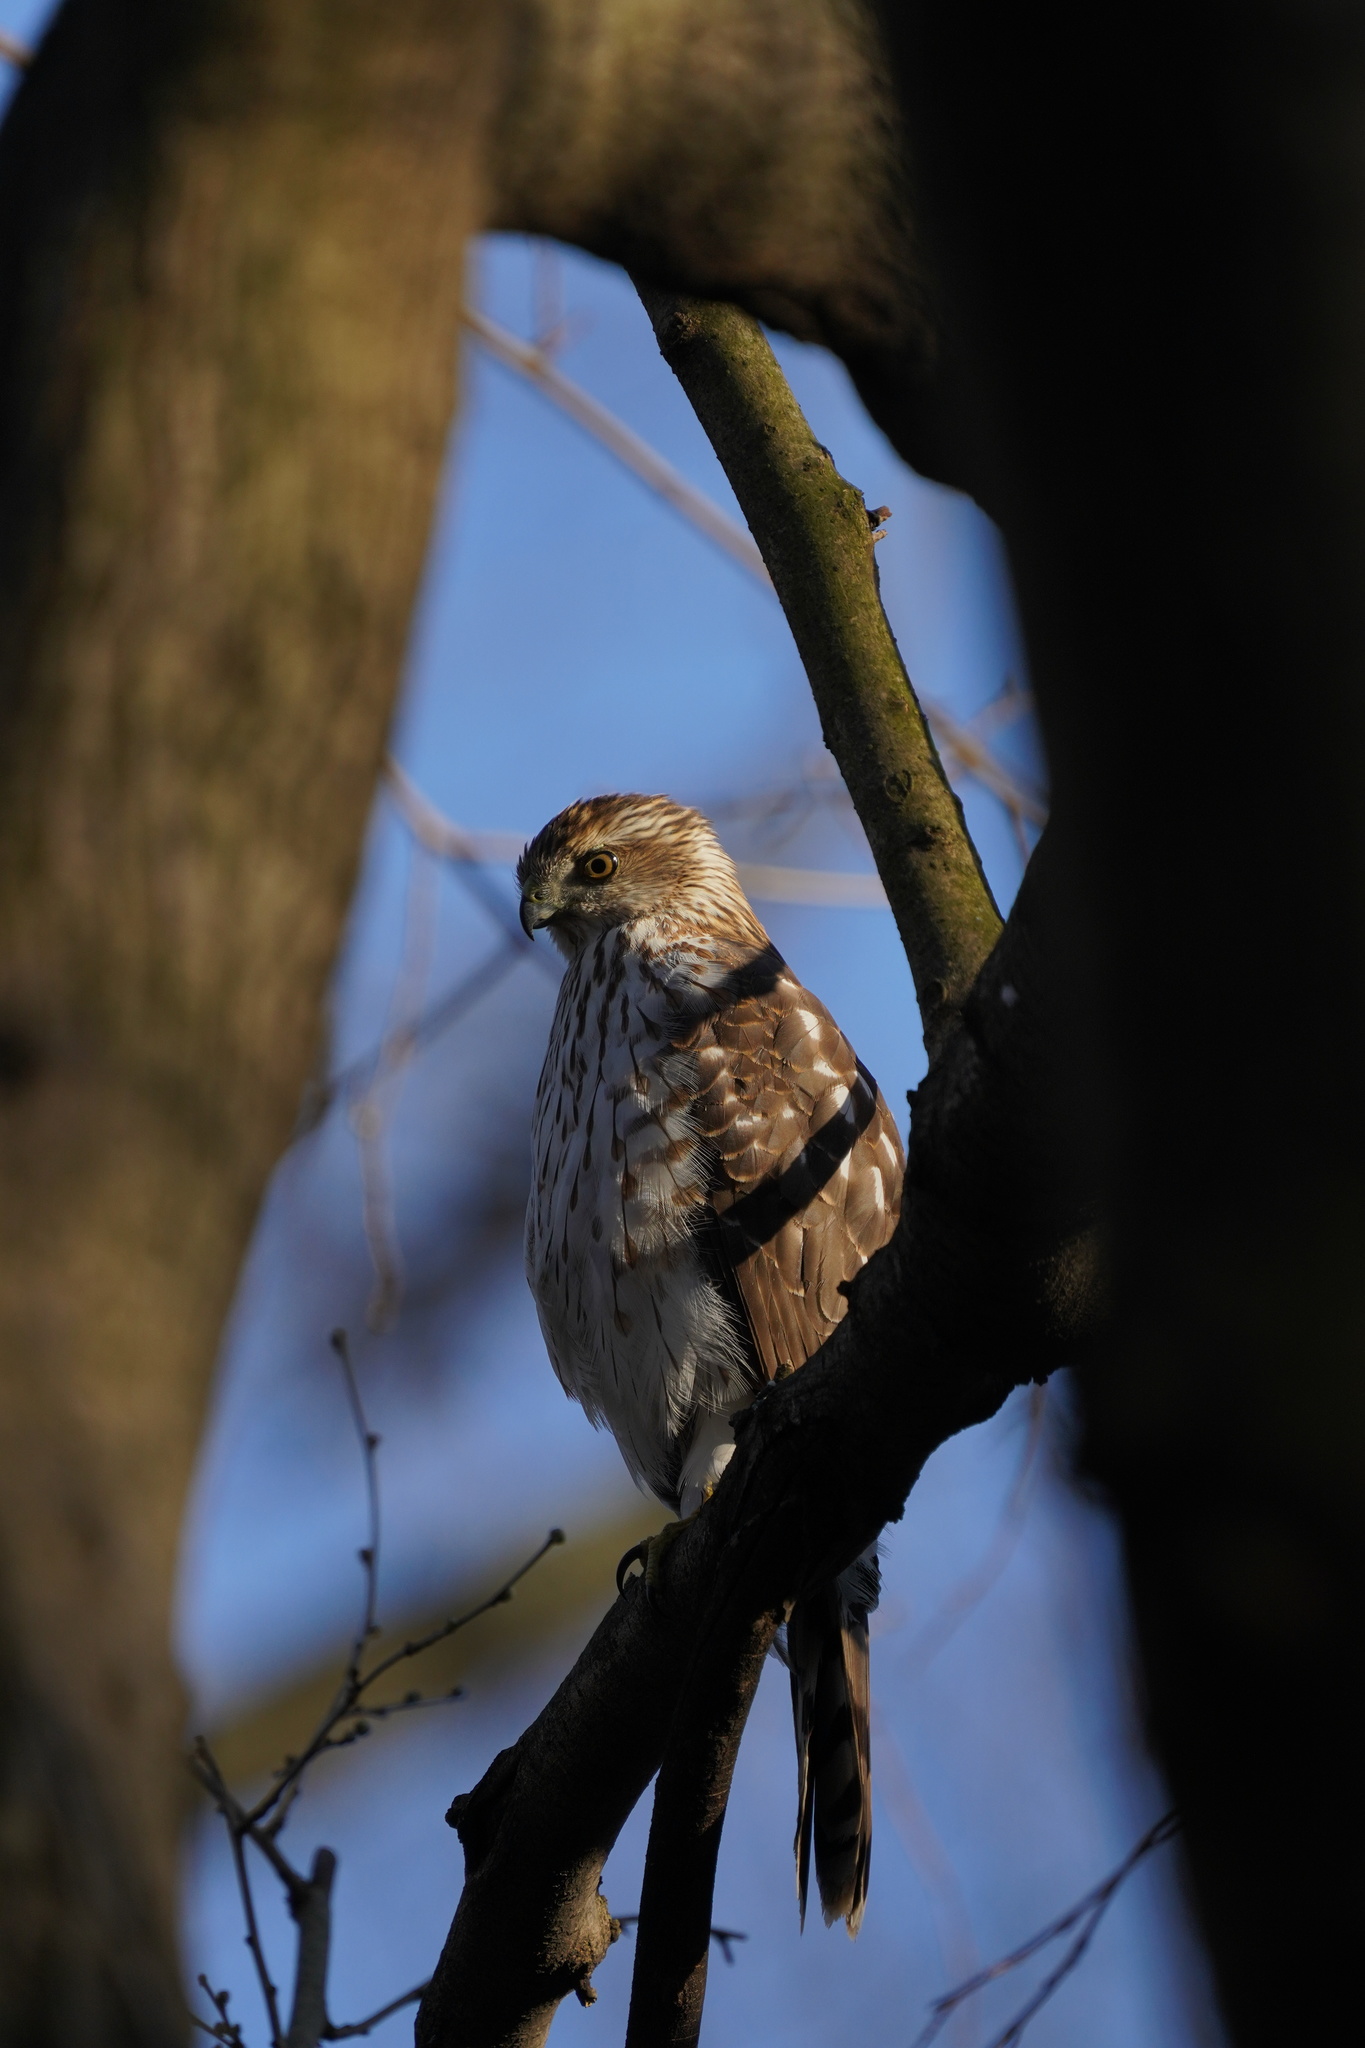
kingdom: Animalia
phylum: Chordata
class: Aves
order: Accipitriformes
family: Accipitridae
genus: Accipiter
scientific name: Accipiter cooperii
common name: Cooper's hawk
